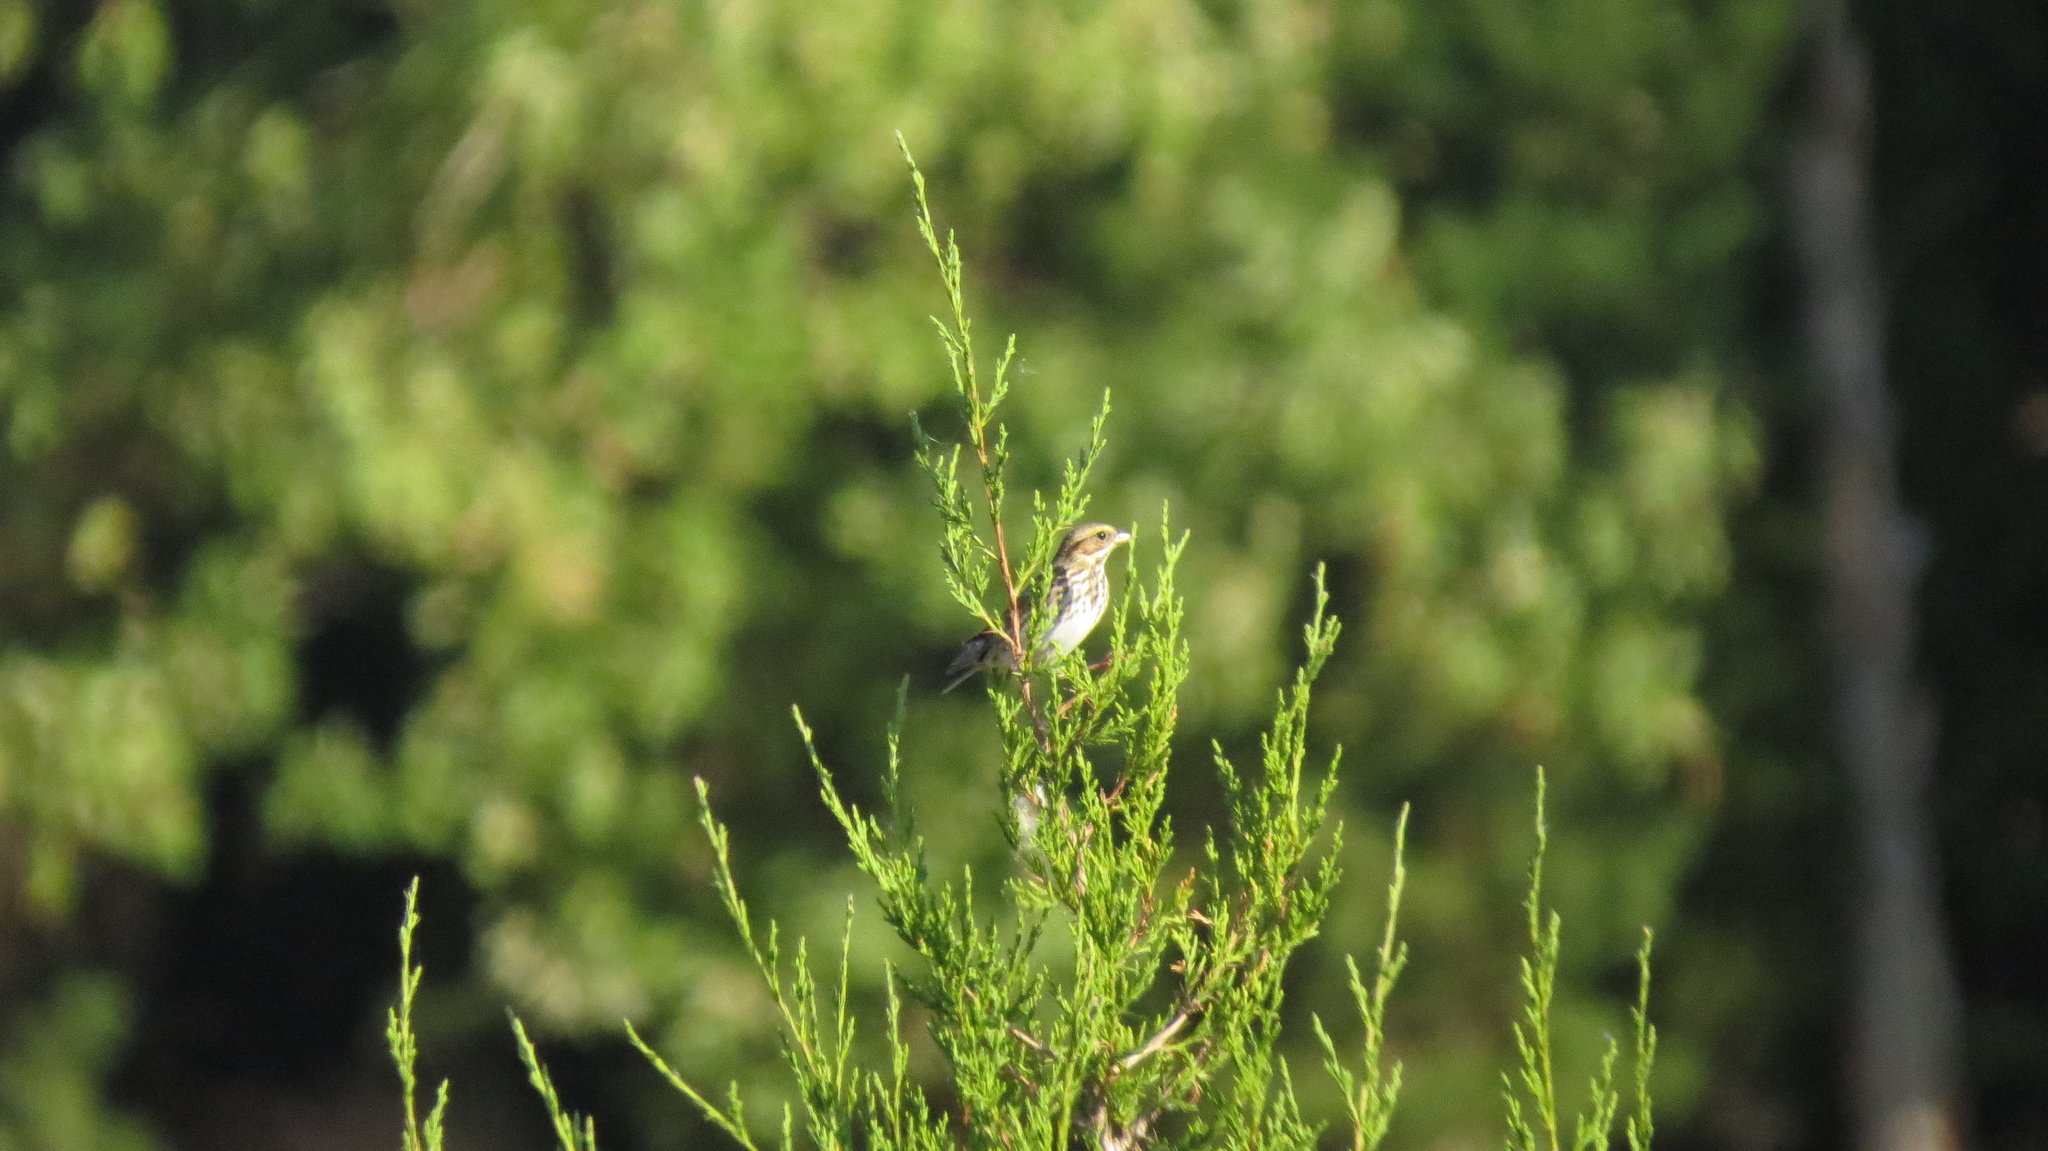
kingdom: Animalia
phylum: Chordata
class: Aves
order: Passeriformes
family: Passerellidae
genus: Passerculus
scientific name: Passerculus sandwichensis
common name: Savannah sparrow
